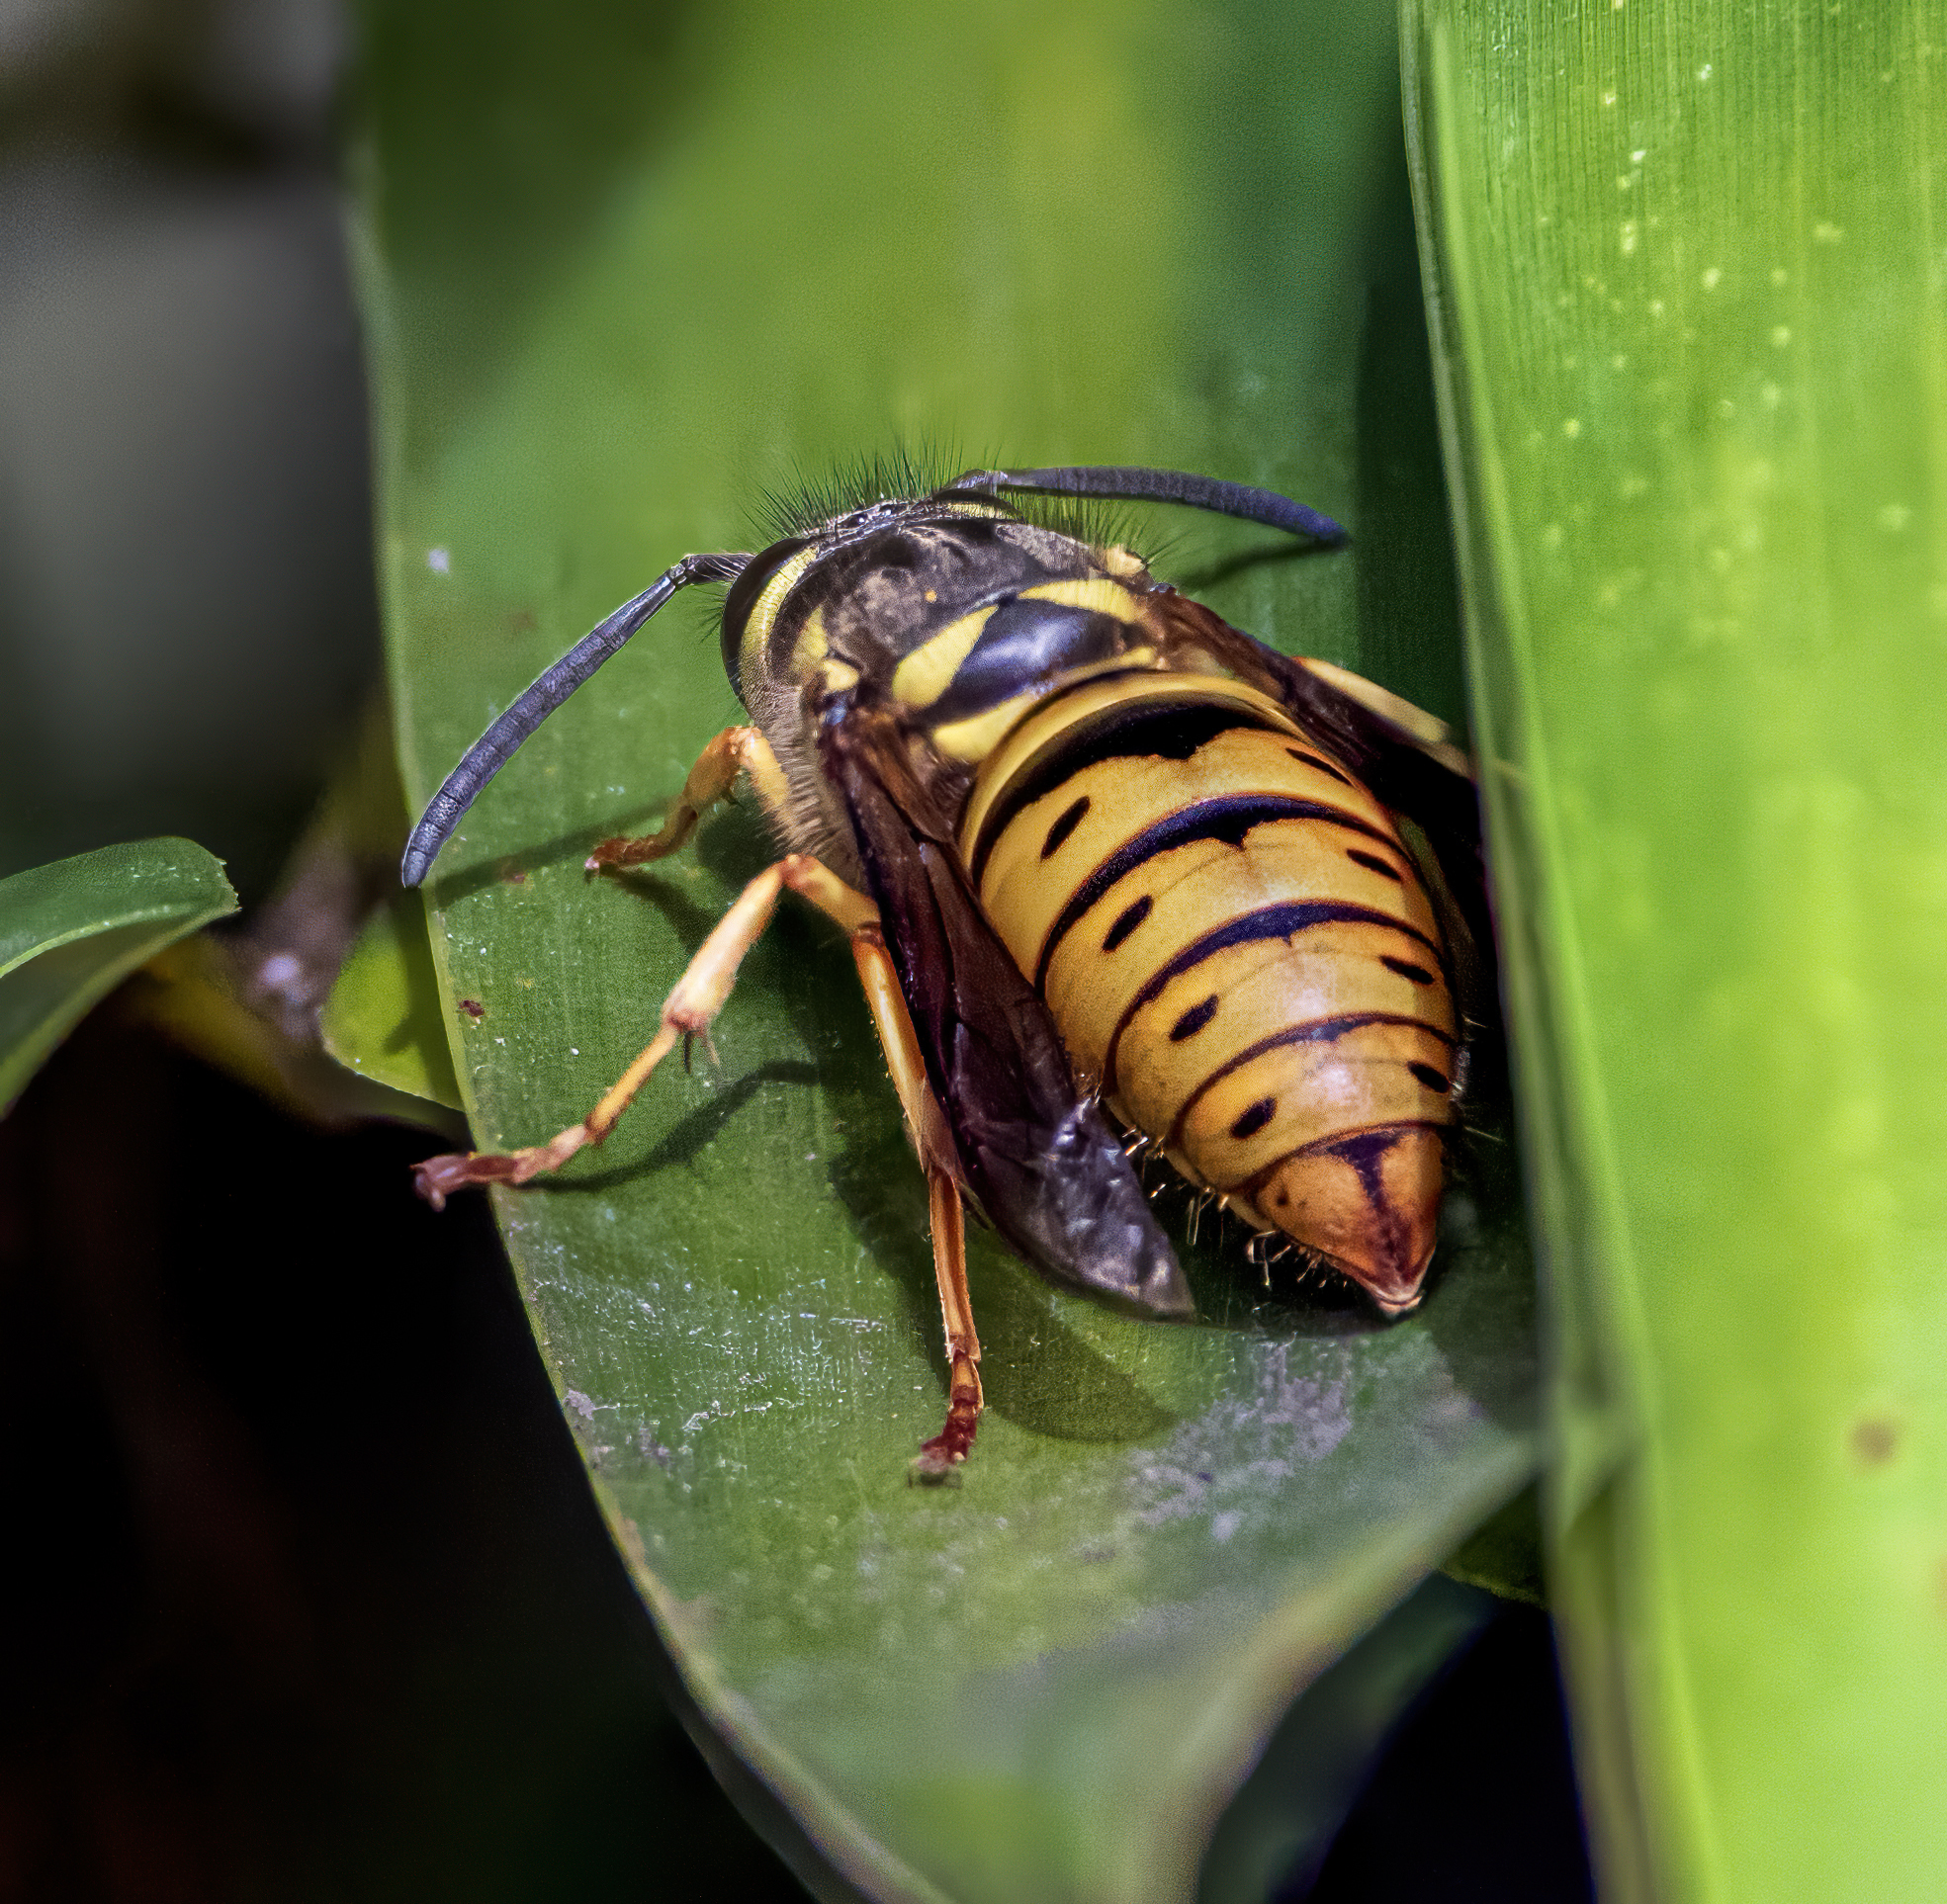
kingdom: Animalia
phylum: Arthropoda
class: Insecta
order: Hymenoptera
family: Vespidae
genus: Vespula
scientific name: Vespula maculifrons
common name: Eastern yellowjacket
